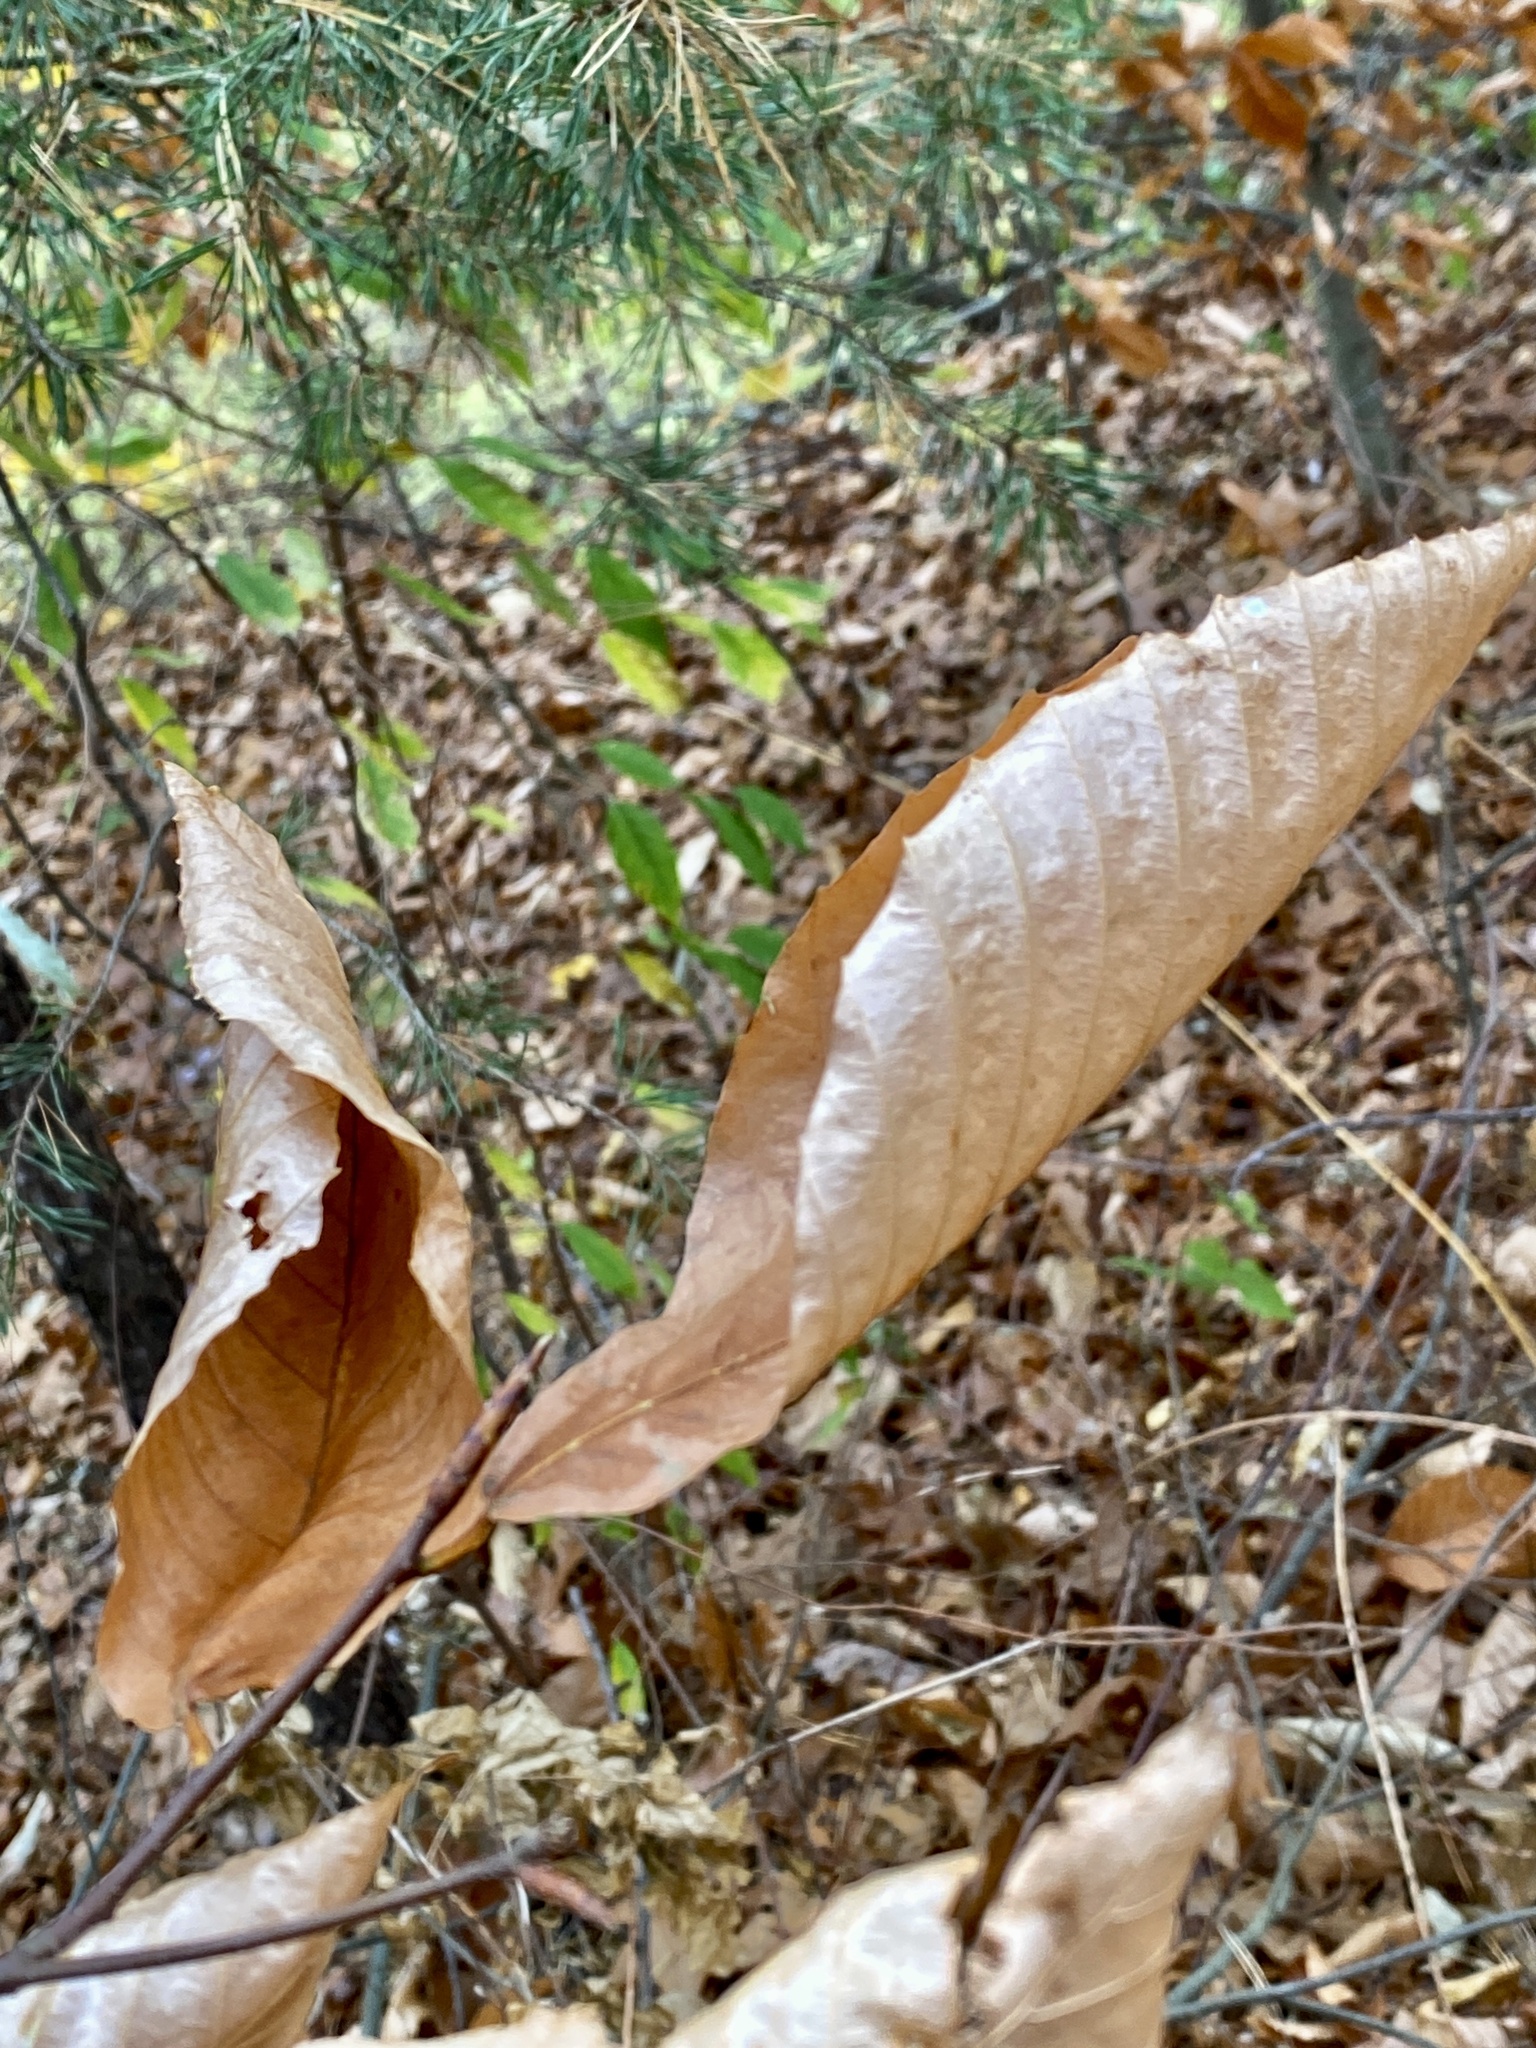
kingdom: Plantae
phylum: Tracheophyta
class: Magnoliopsida
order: Fagales
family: Fagaceae
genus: Fagus
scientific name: Fagus grandifolia
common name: American beech
